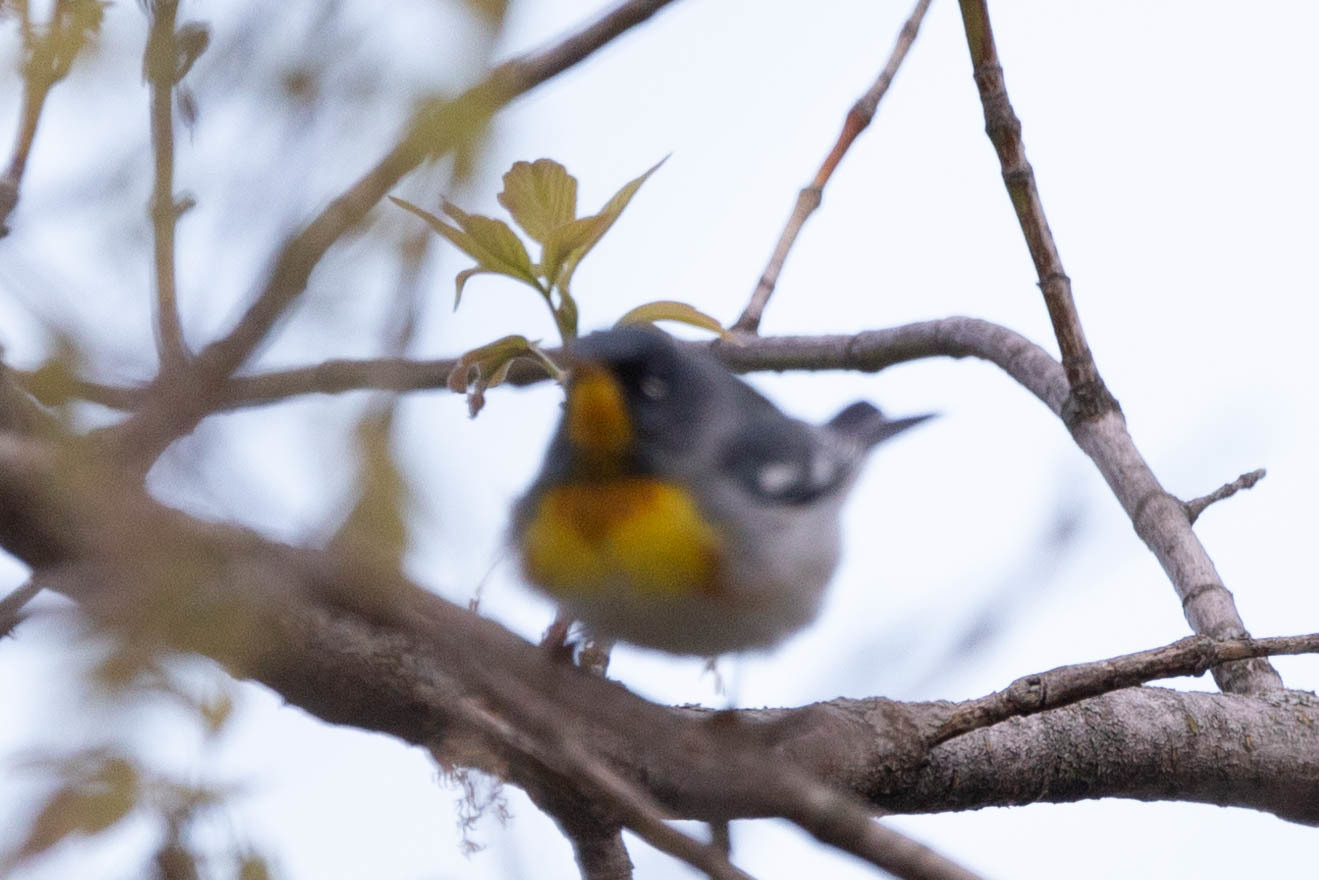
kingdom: Animalia
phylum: Chordata
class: Aves
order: Passeriformes
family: Parulidae
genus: Setophaga
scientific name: Setophaga americana
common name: Northern parula
